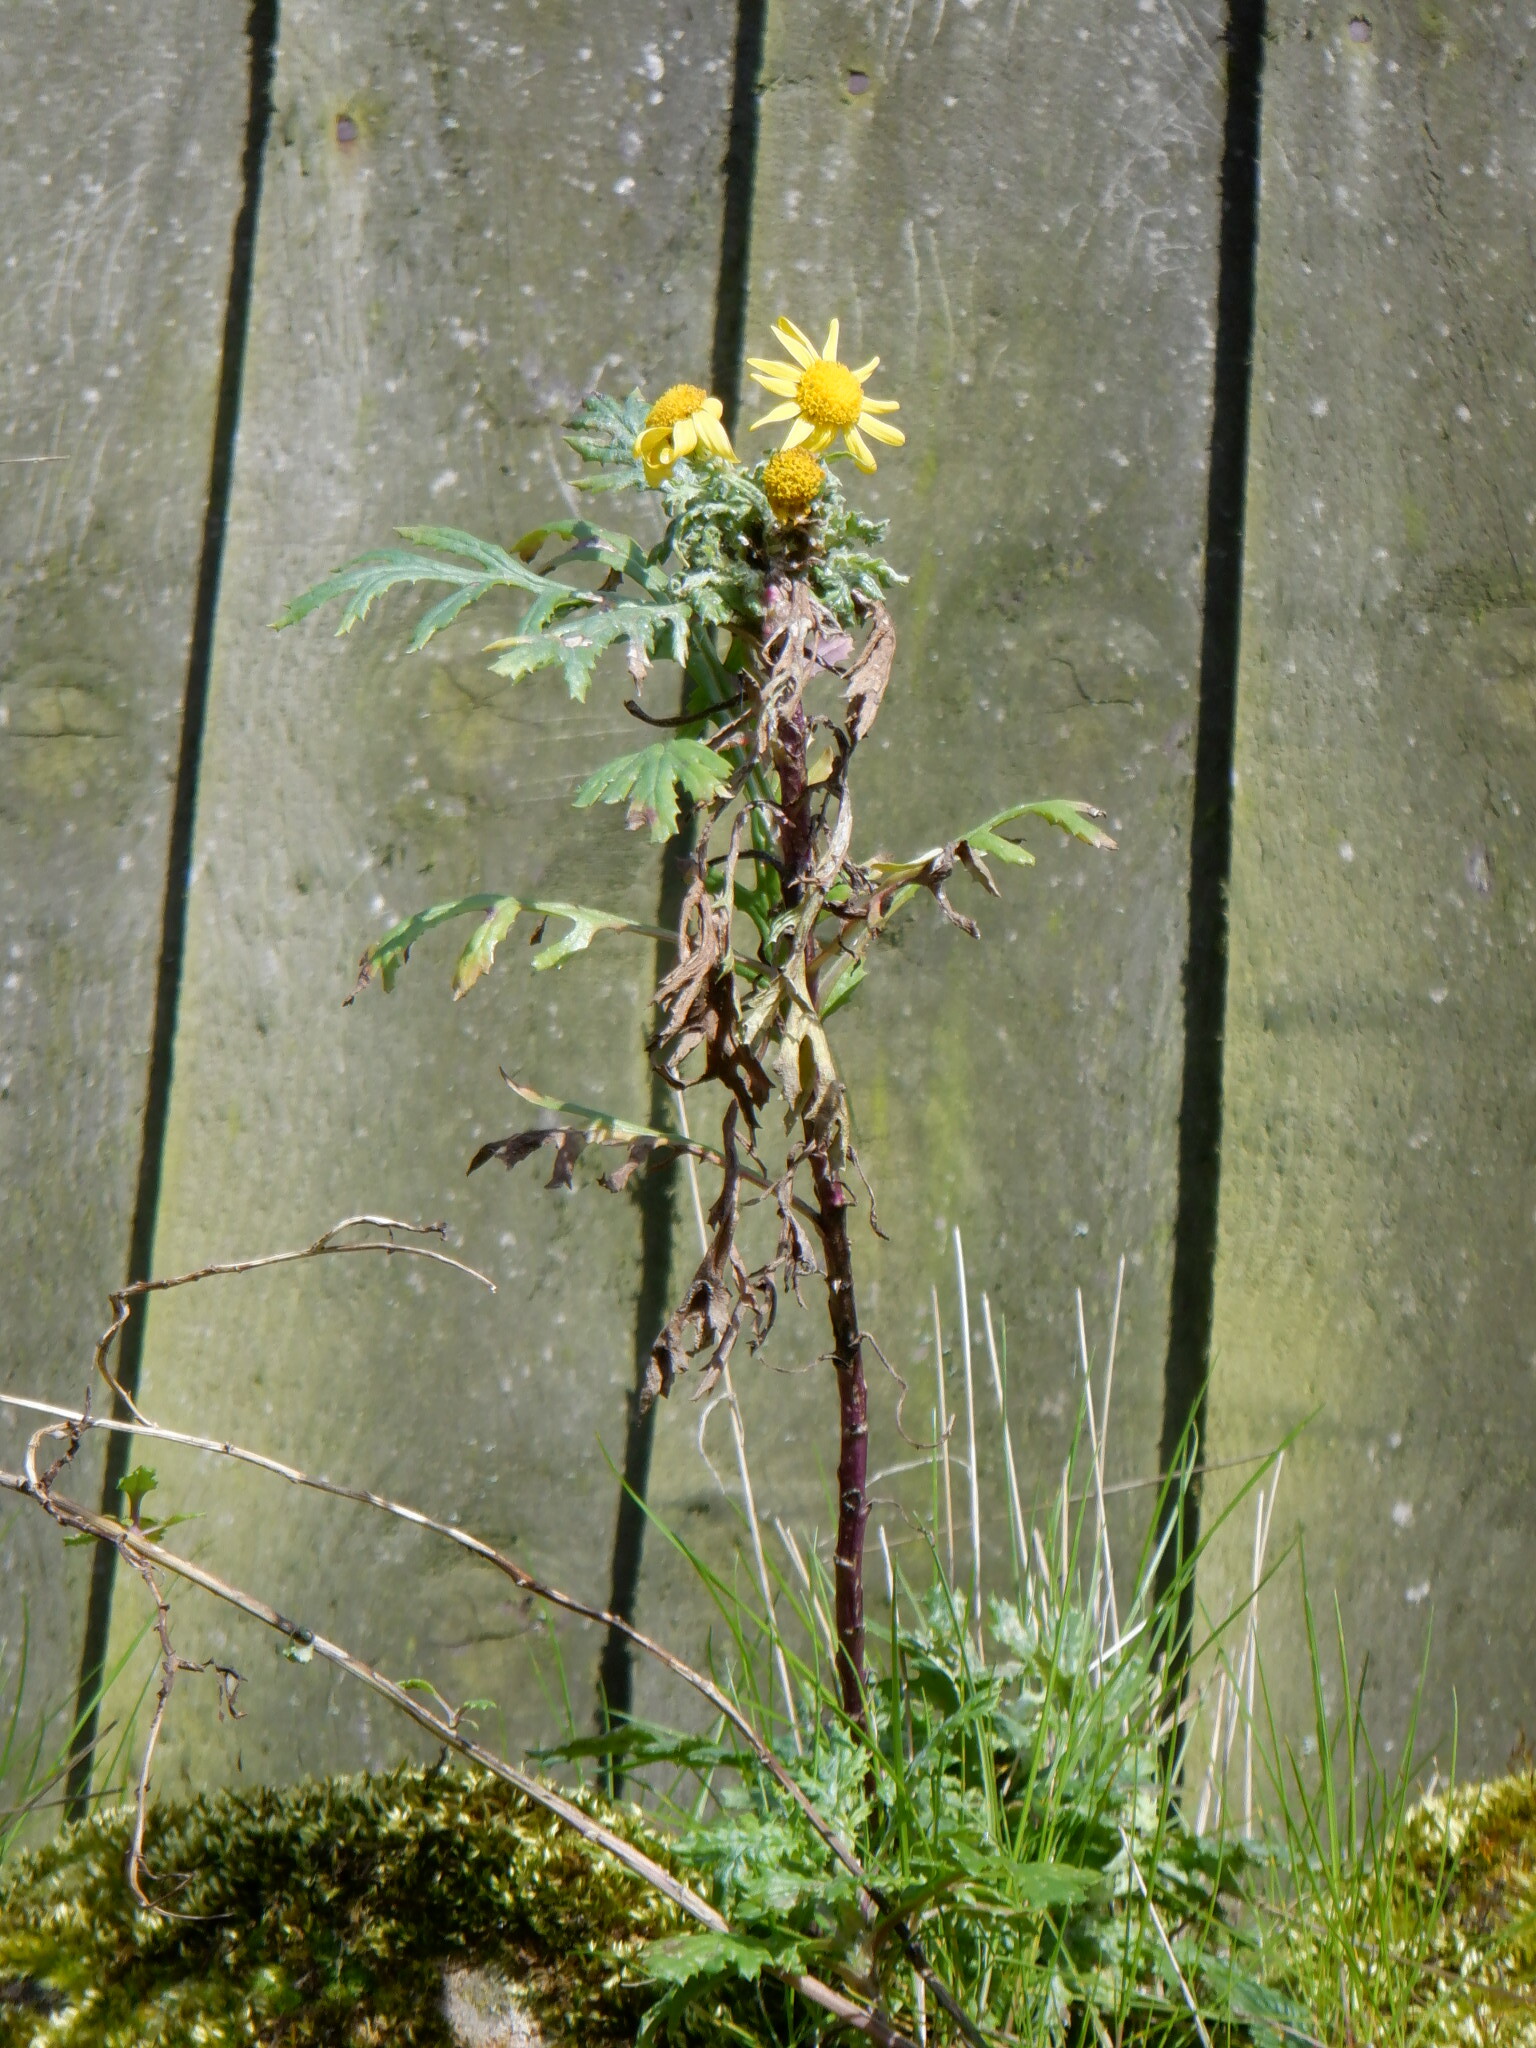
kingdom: Plantae
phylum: Tracheophyta
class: Magnoliopsida
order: Asterales
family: Asteraceae
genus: Senecio
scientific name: Senecio squalidus
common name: Oxford ragwort
